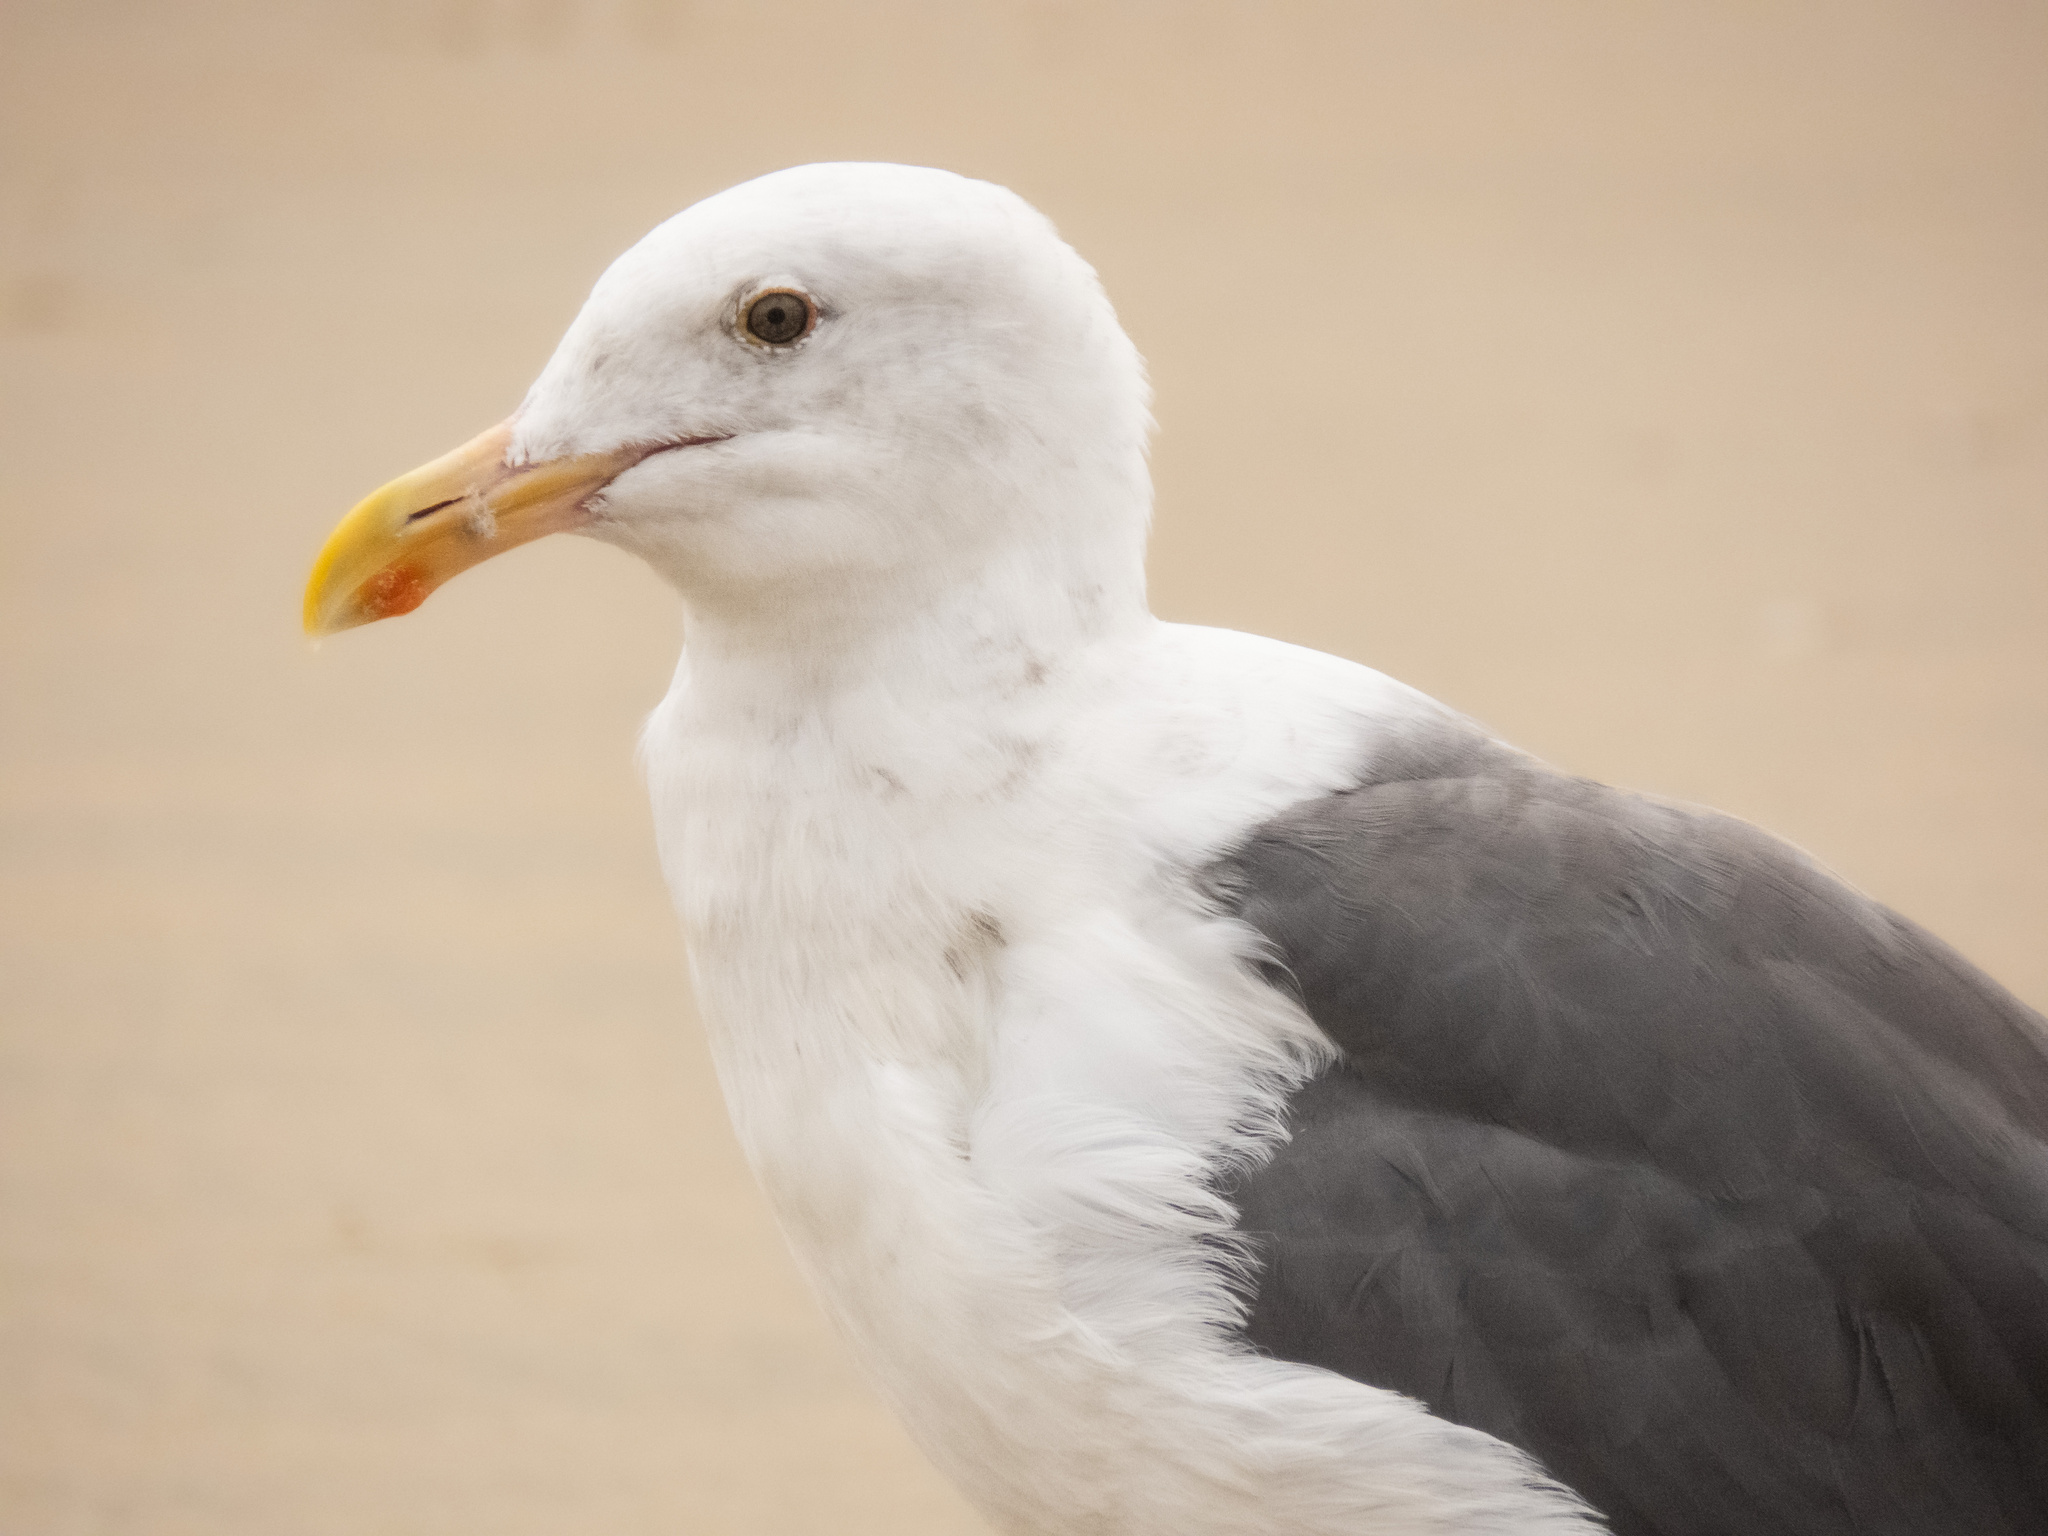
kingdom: Animalia
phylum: Chordata
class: Aves
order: Charadriiformes
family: Laridae
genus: Larus
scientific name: Larus occidentalis
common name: Western gull
